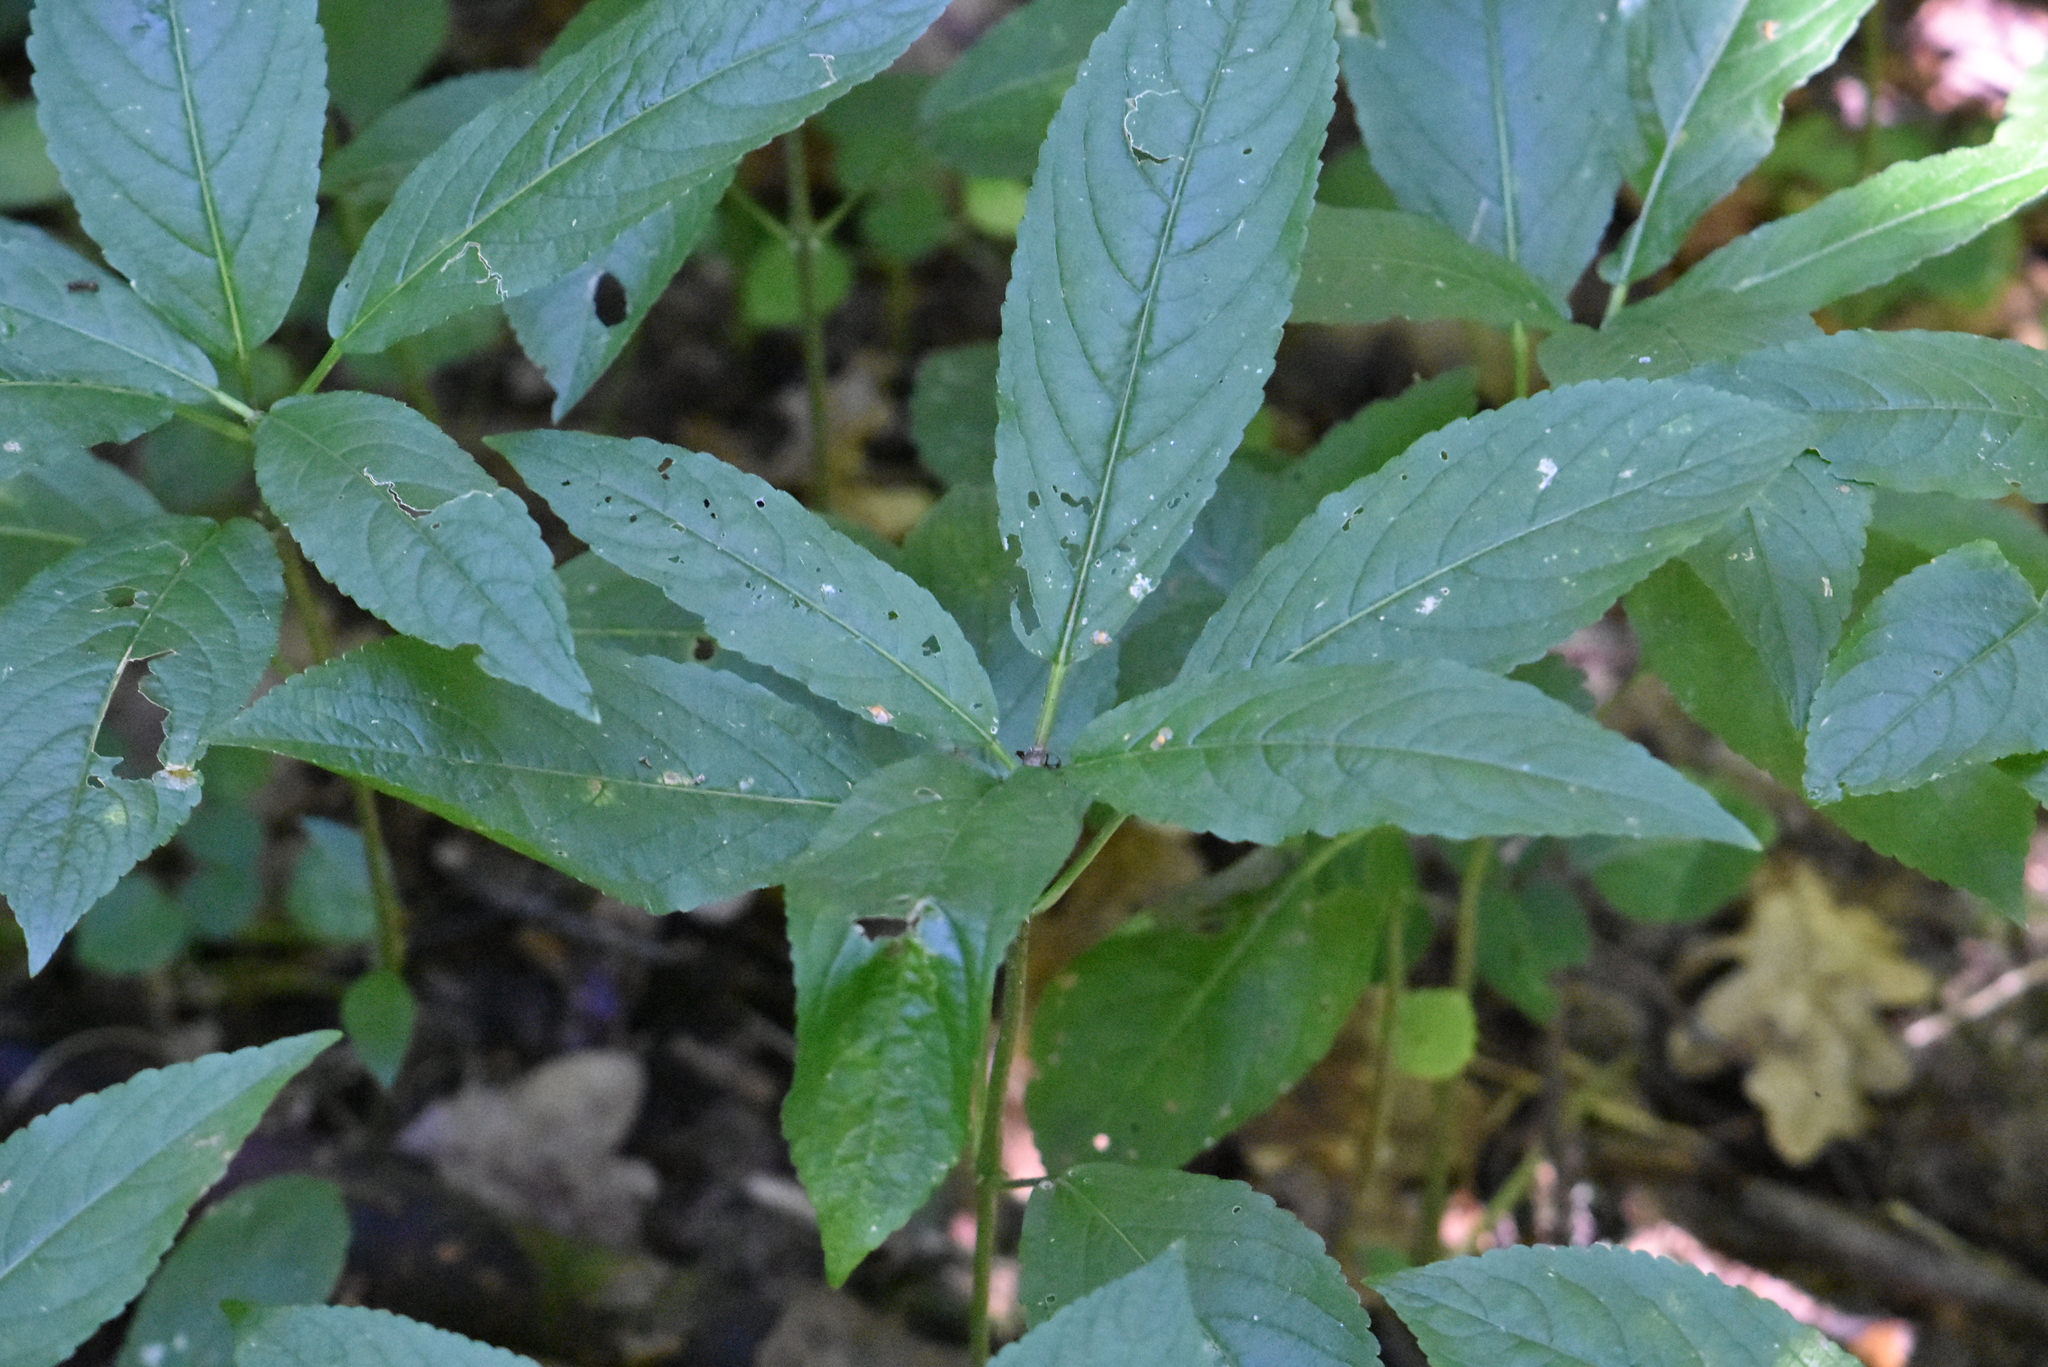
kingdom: Plantae
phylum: Tracheophyta
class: Magnoliopsida
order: Malpighiales
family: Euphorbiaceae
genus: Mercurialis
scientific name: Mercurialis perennis
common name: Dog mercury
